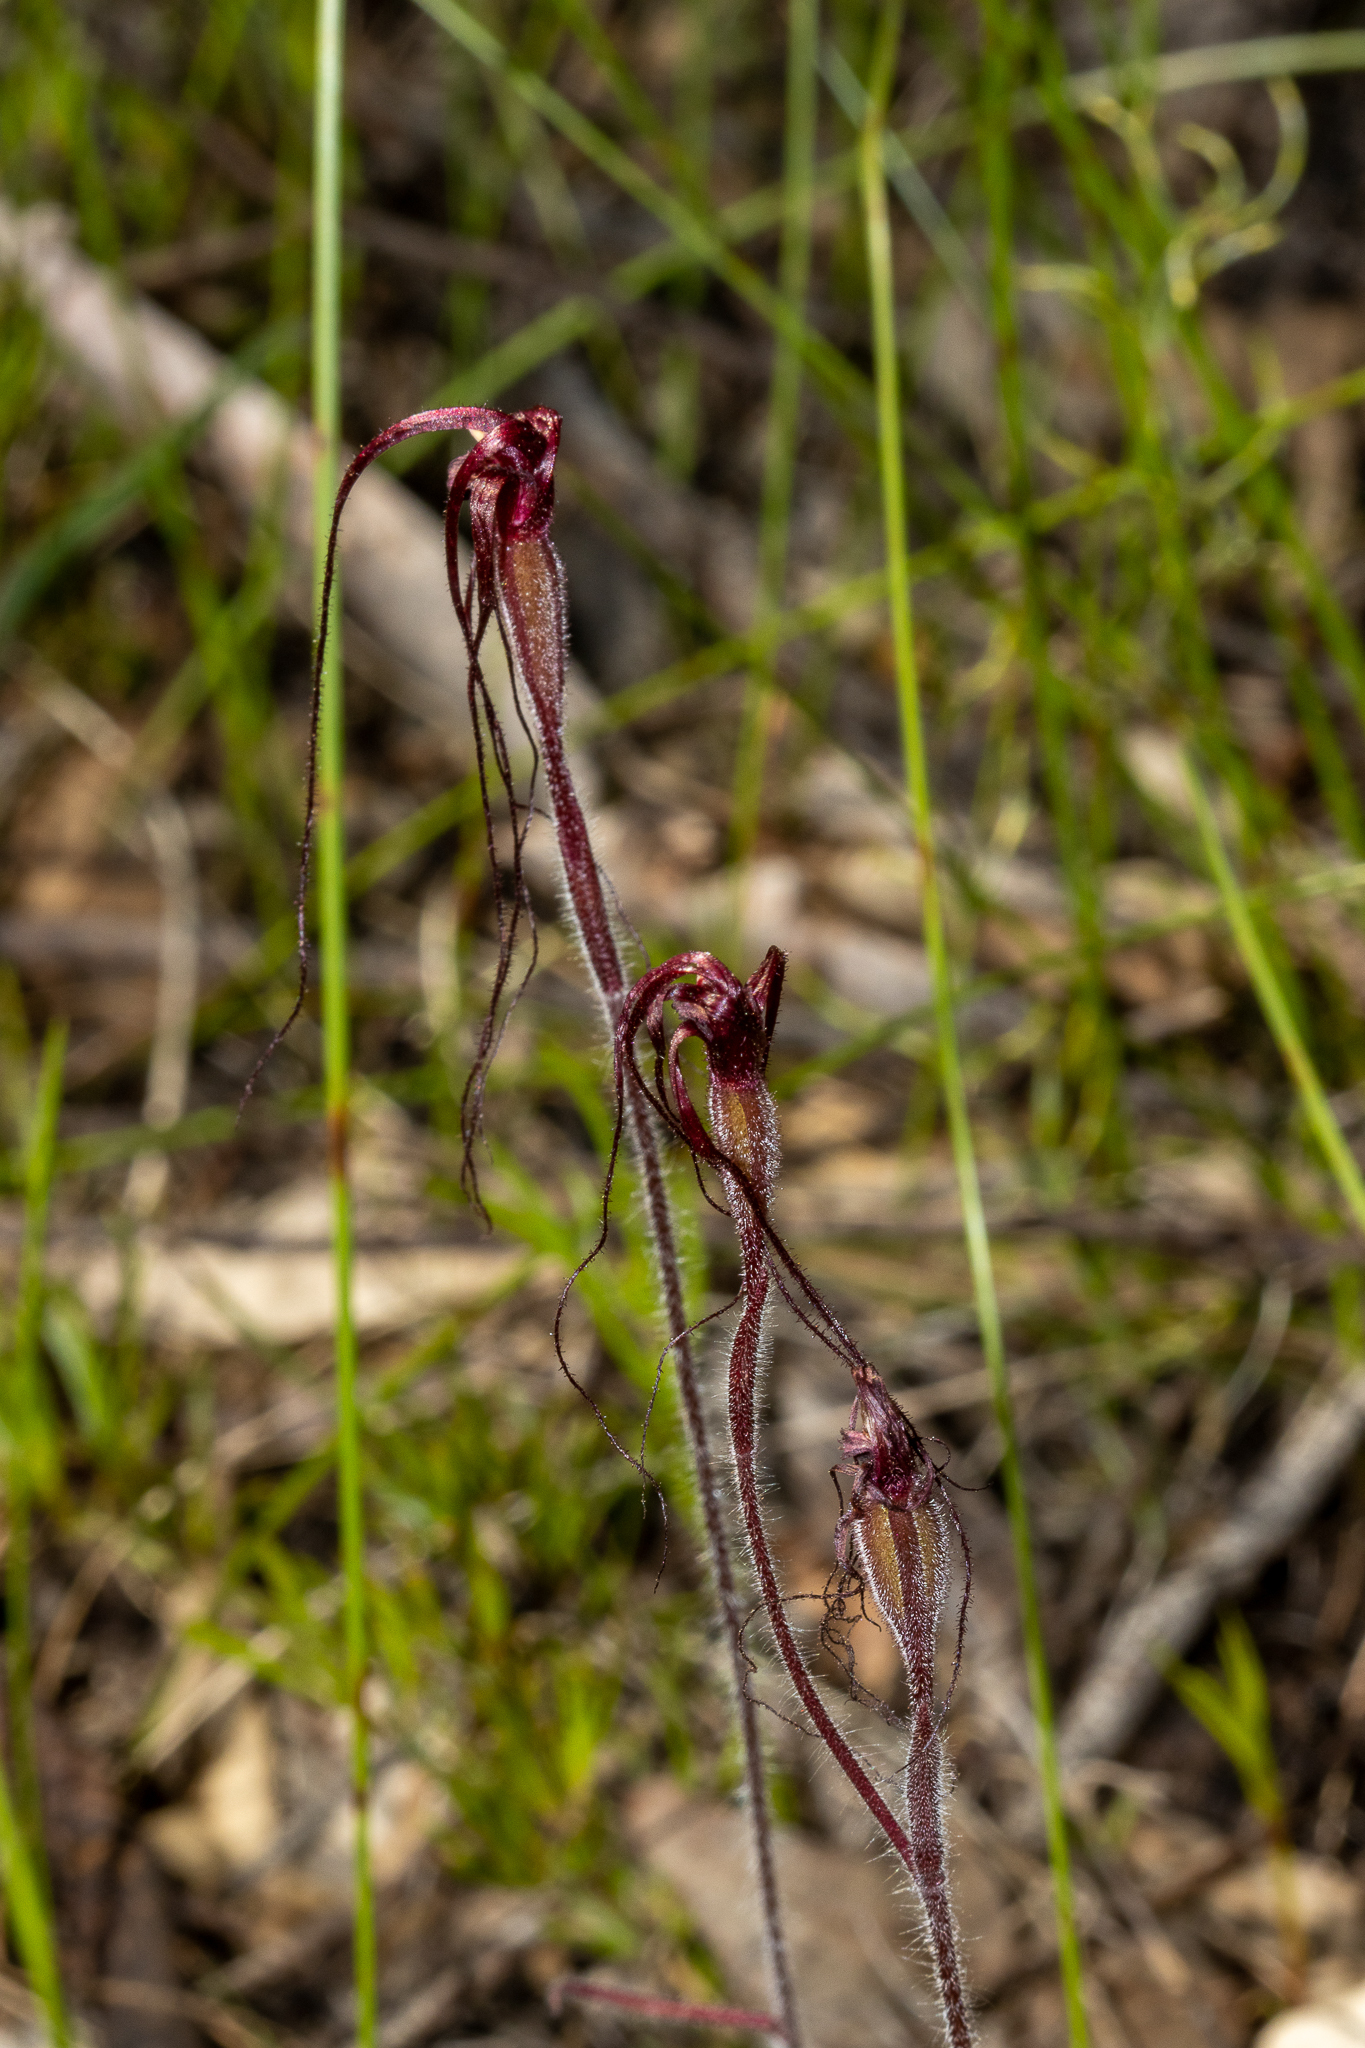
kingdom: Plantae
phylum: Tracheophyta
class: Liliopsida
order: Asparagales
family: Orchidaceae
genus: Caladenia
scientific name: Caladenia filifera
